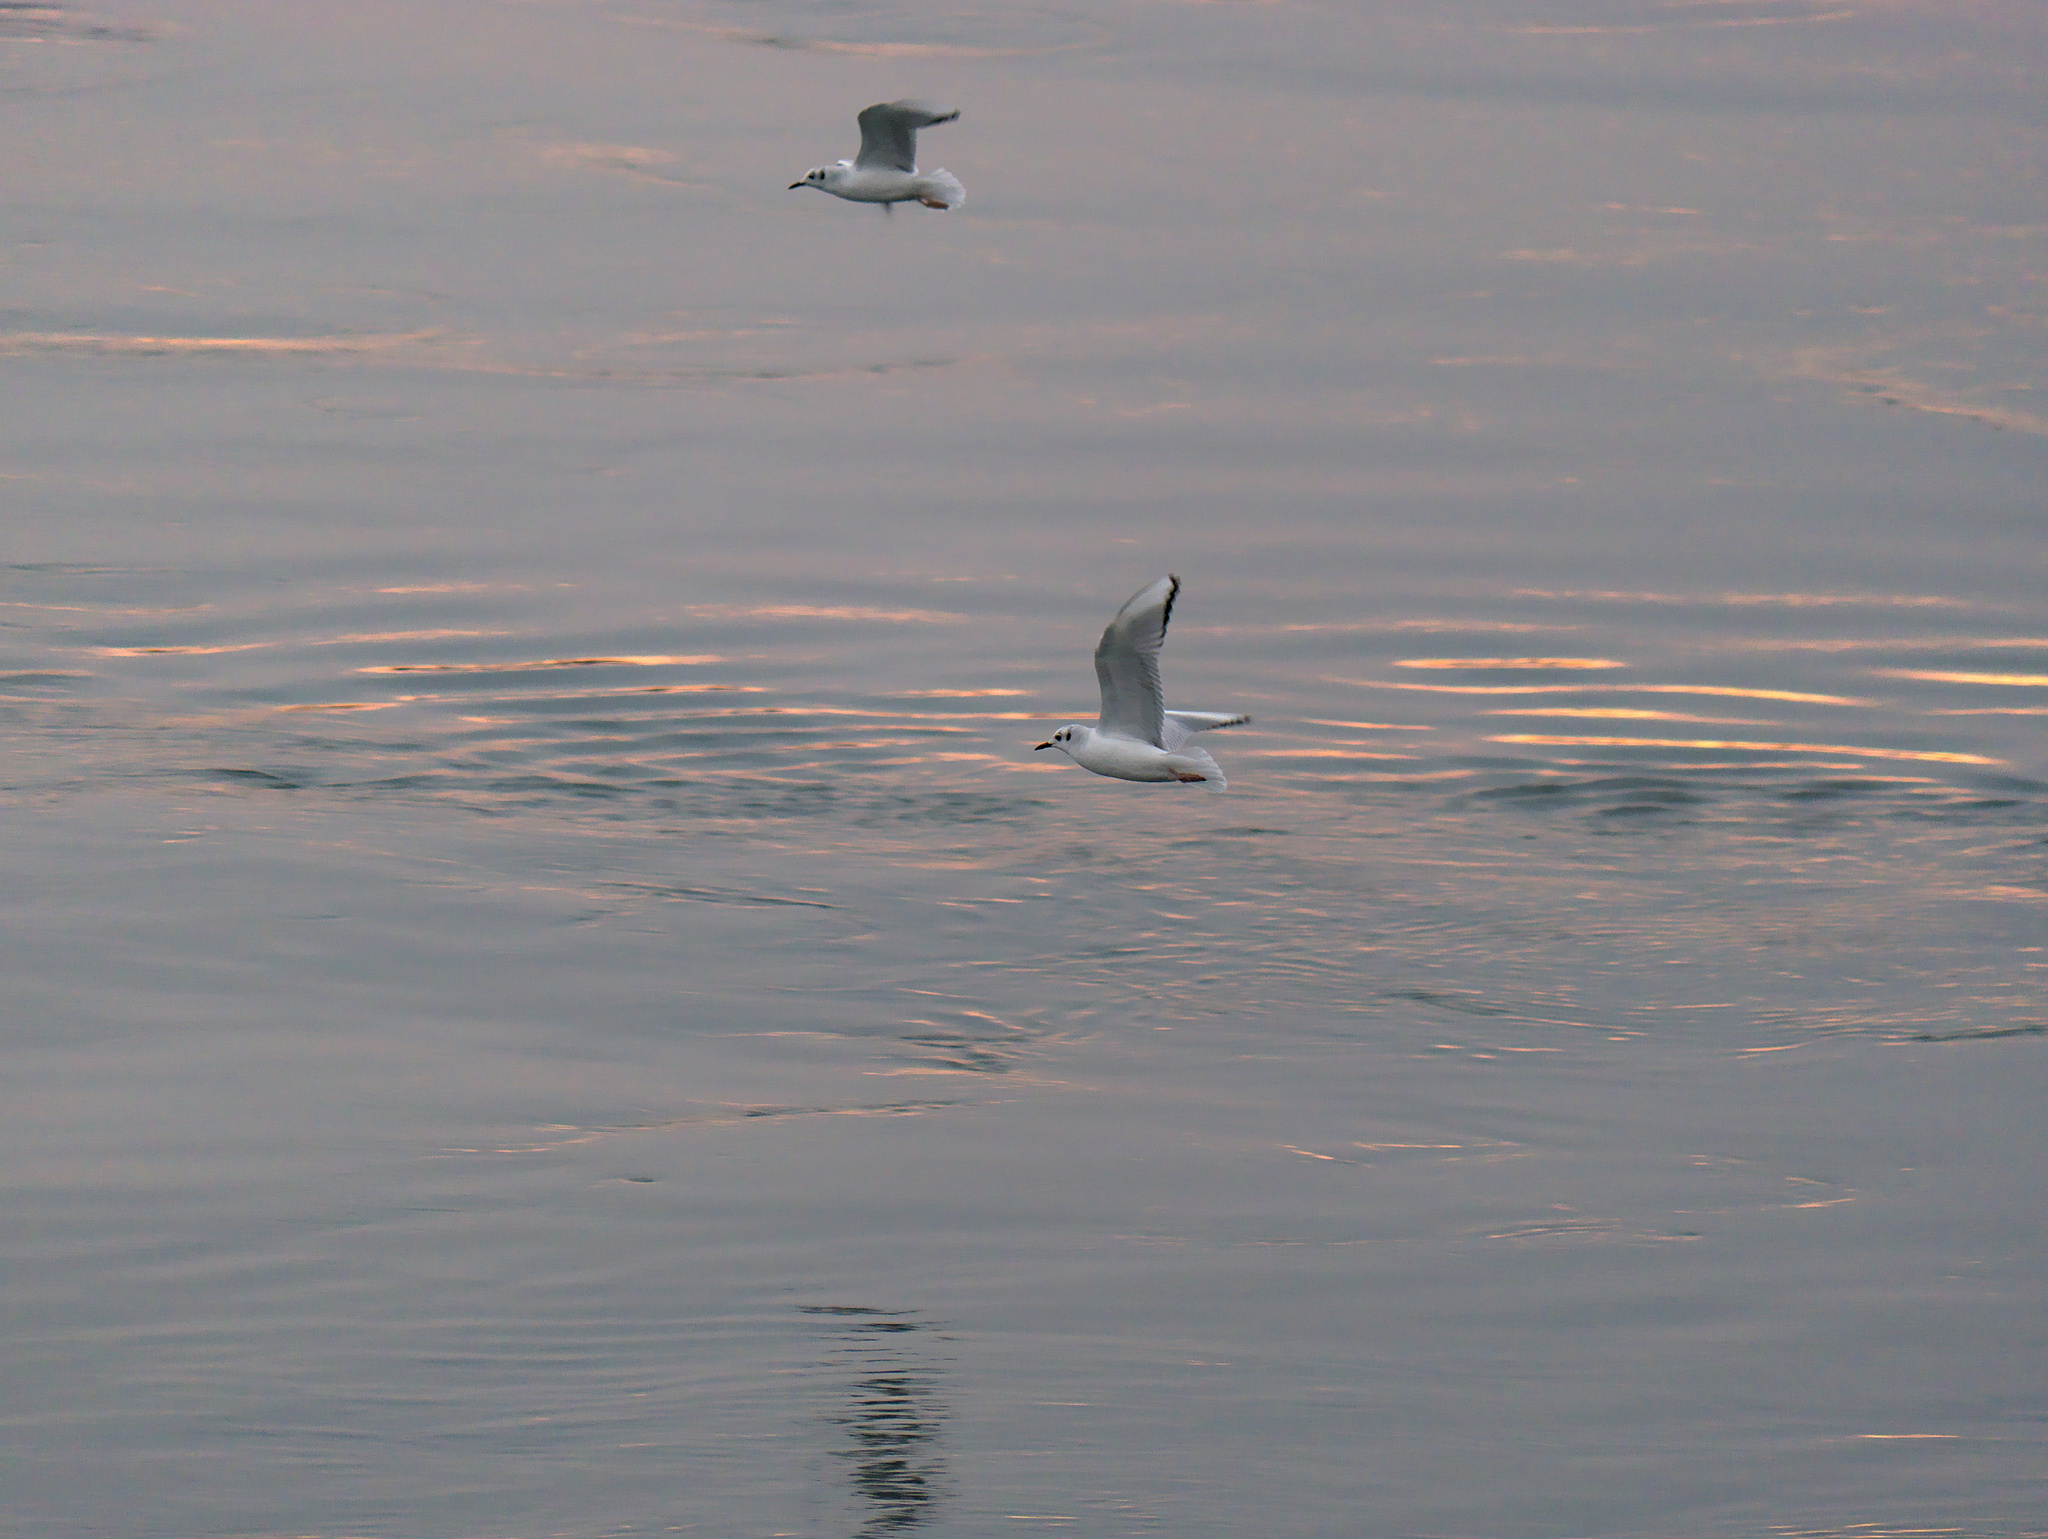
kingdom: Animalia
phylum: Chordata
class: Aves
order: Charadriiformes
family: Laridae
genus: Chroicocephalus
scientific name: Chroicocephalus philadelphia
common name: Bonaparte's gull
